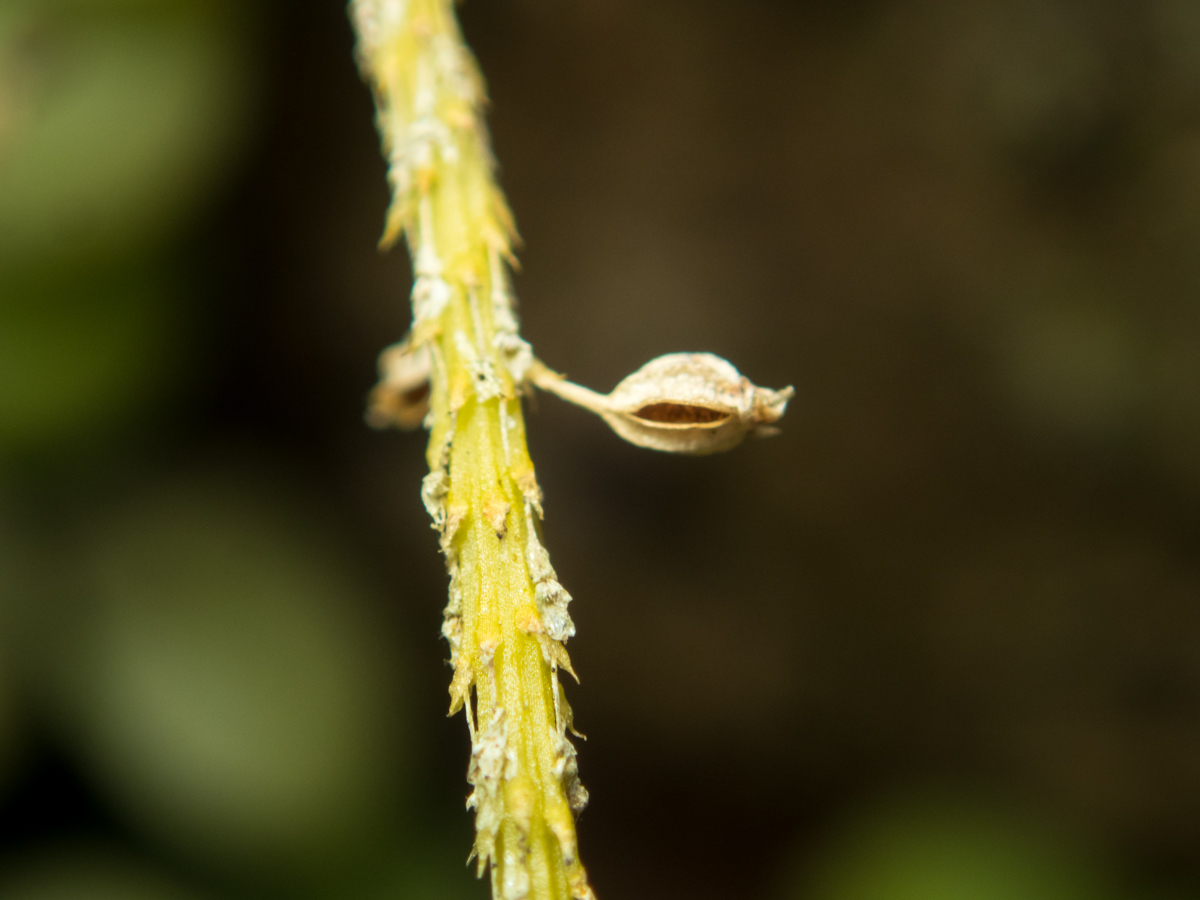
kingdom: Plantae
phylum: Tracheophyta
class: Liliopsida
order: Asparagales
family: Orchidaceae
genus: Oberonia
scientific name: Oberonia falcata
